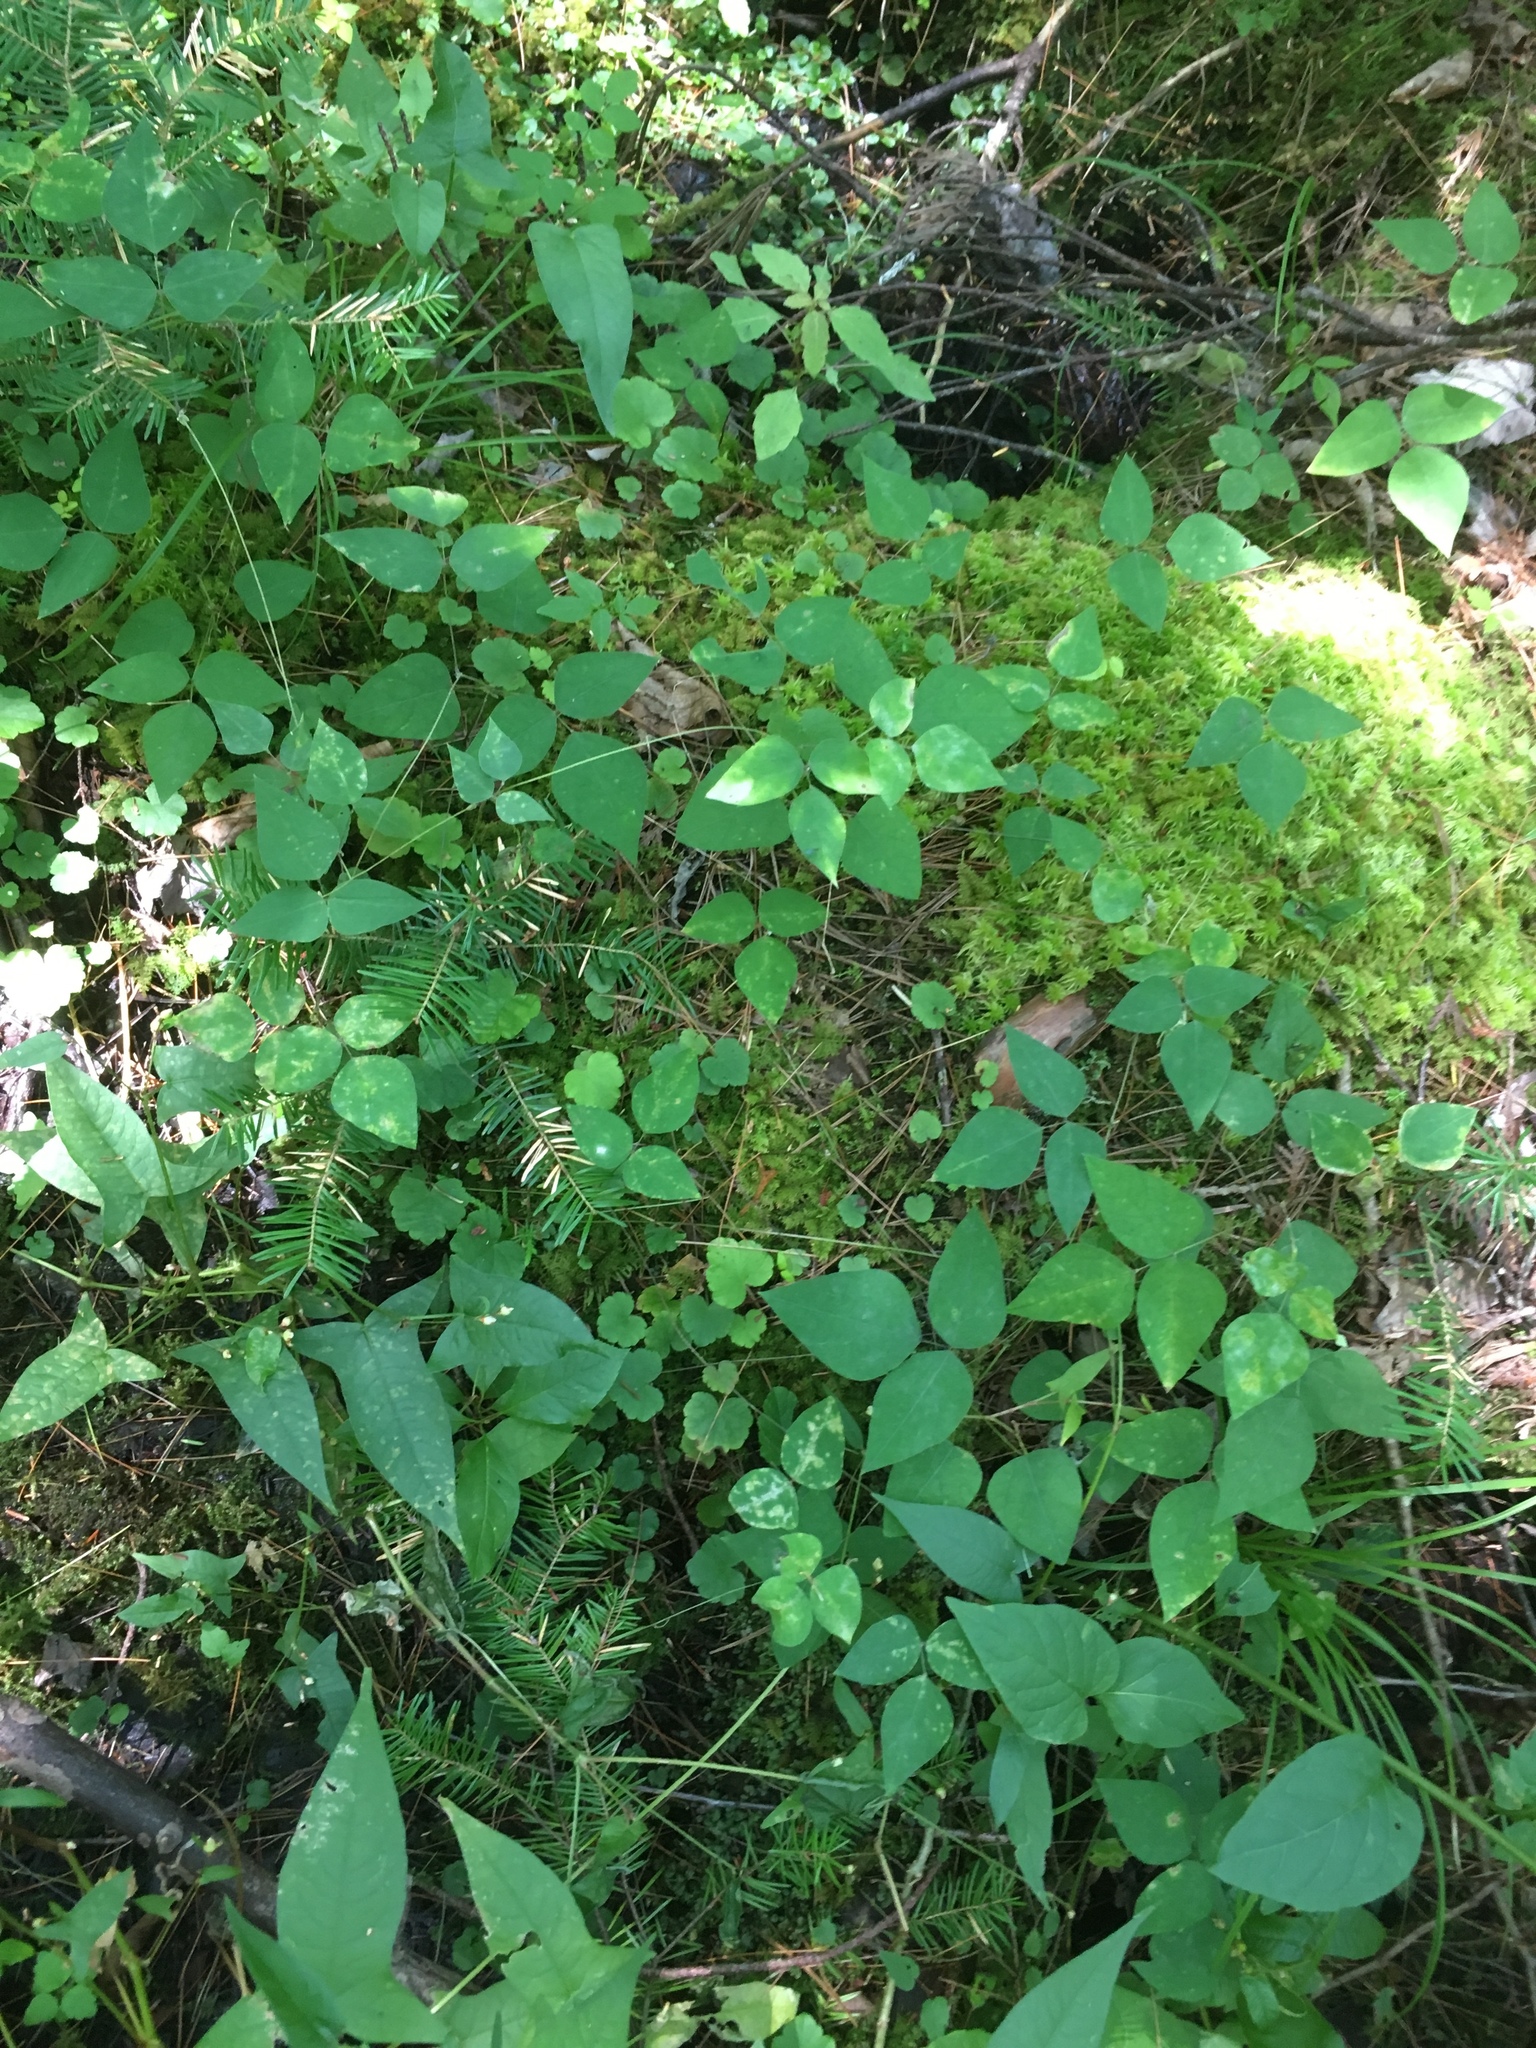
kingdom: Plantae
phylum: Tracheophyta
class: Magnoliopsida
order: Fabales
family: Fabaceae
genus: Amphicarpaea
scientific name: Amphicarpaea bracteata
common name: American hog peanut
